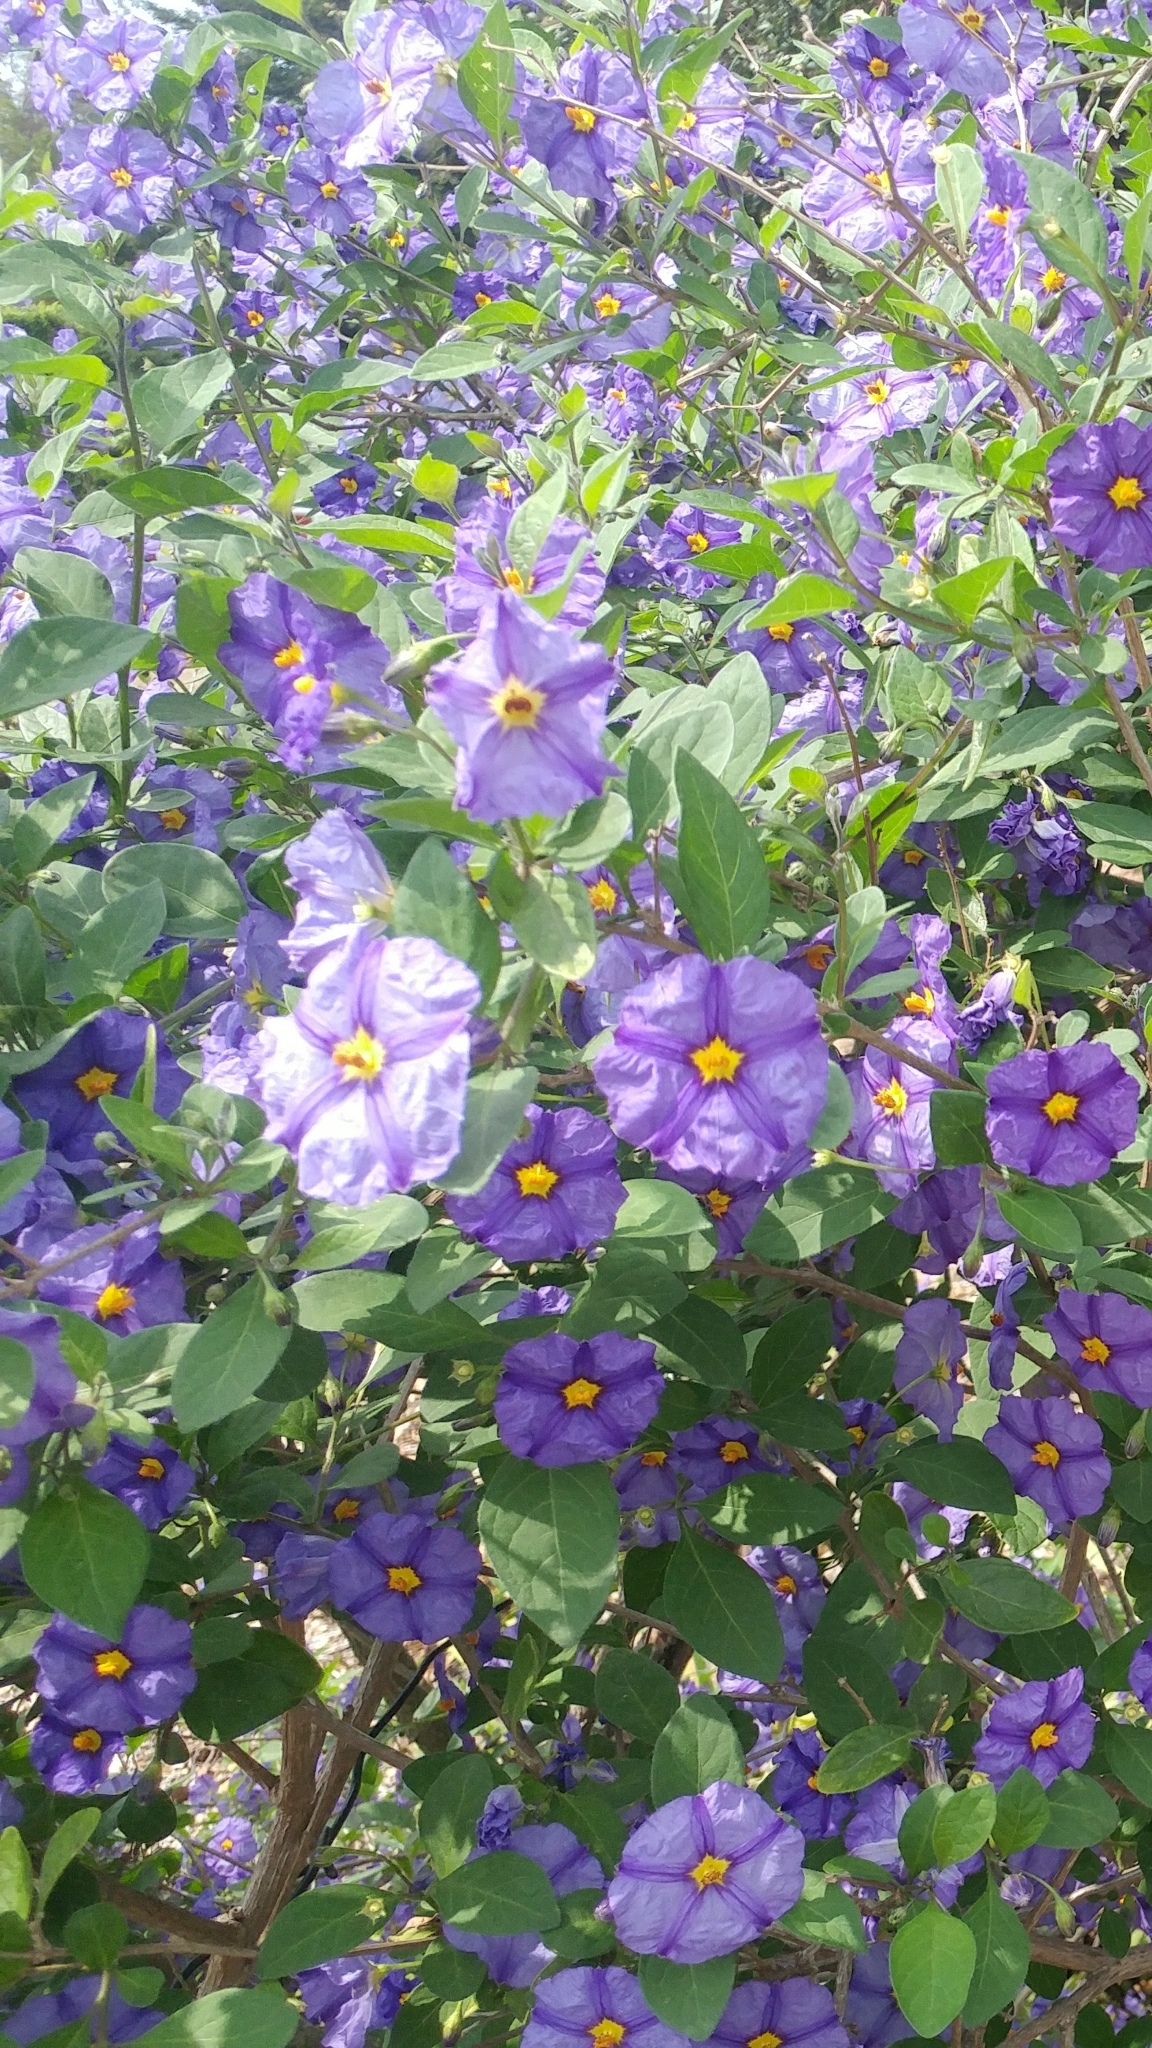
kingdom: Plantae
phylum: Tracheophyta
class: Magnoliopsida
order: Solanales
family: Solanaceae
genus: Lycianthes
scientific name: Lycianthes rantonnetii
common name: Blue potatobush
